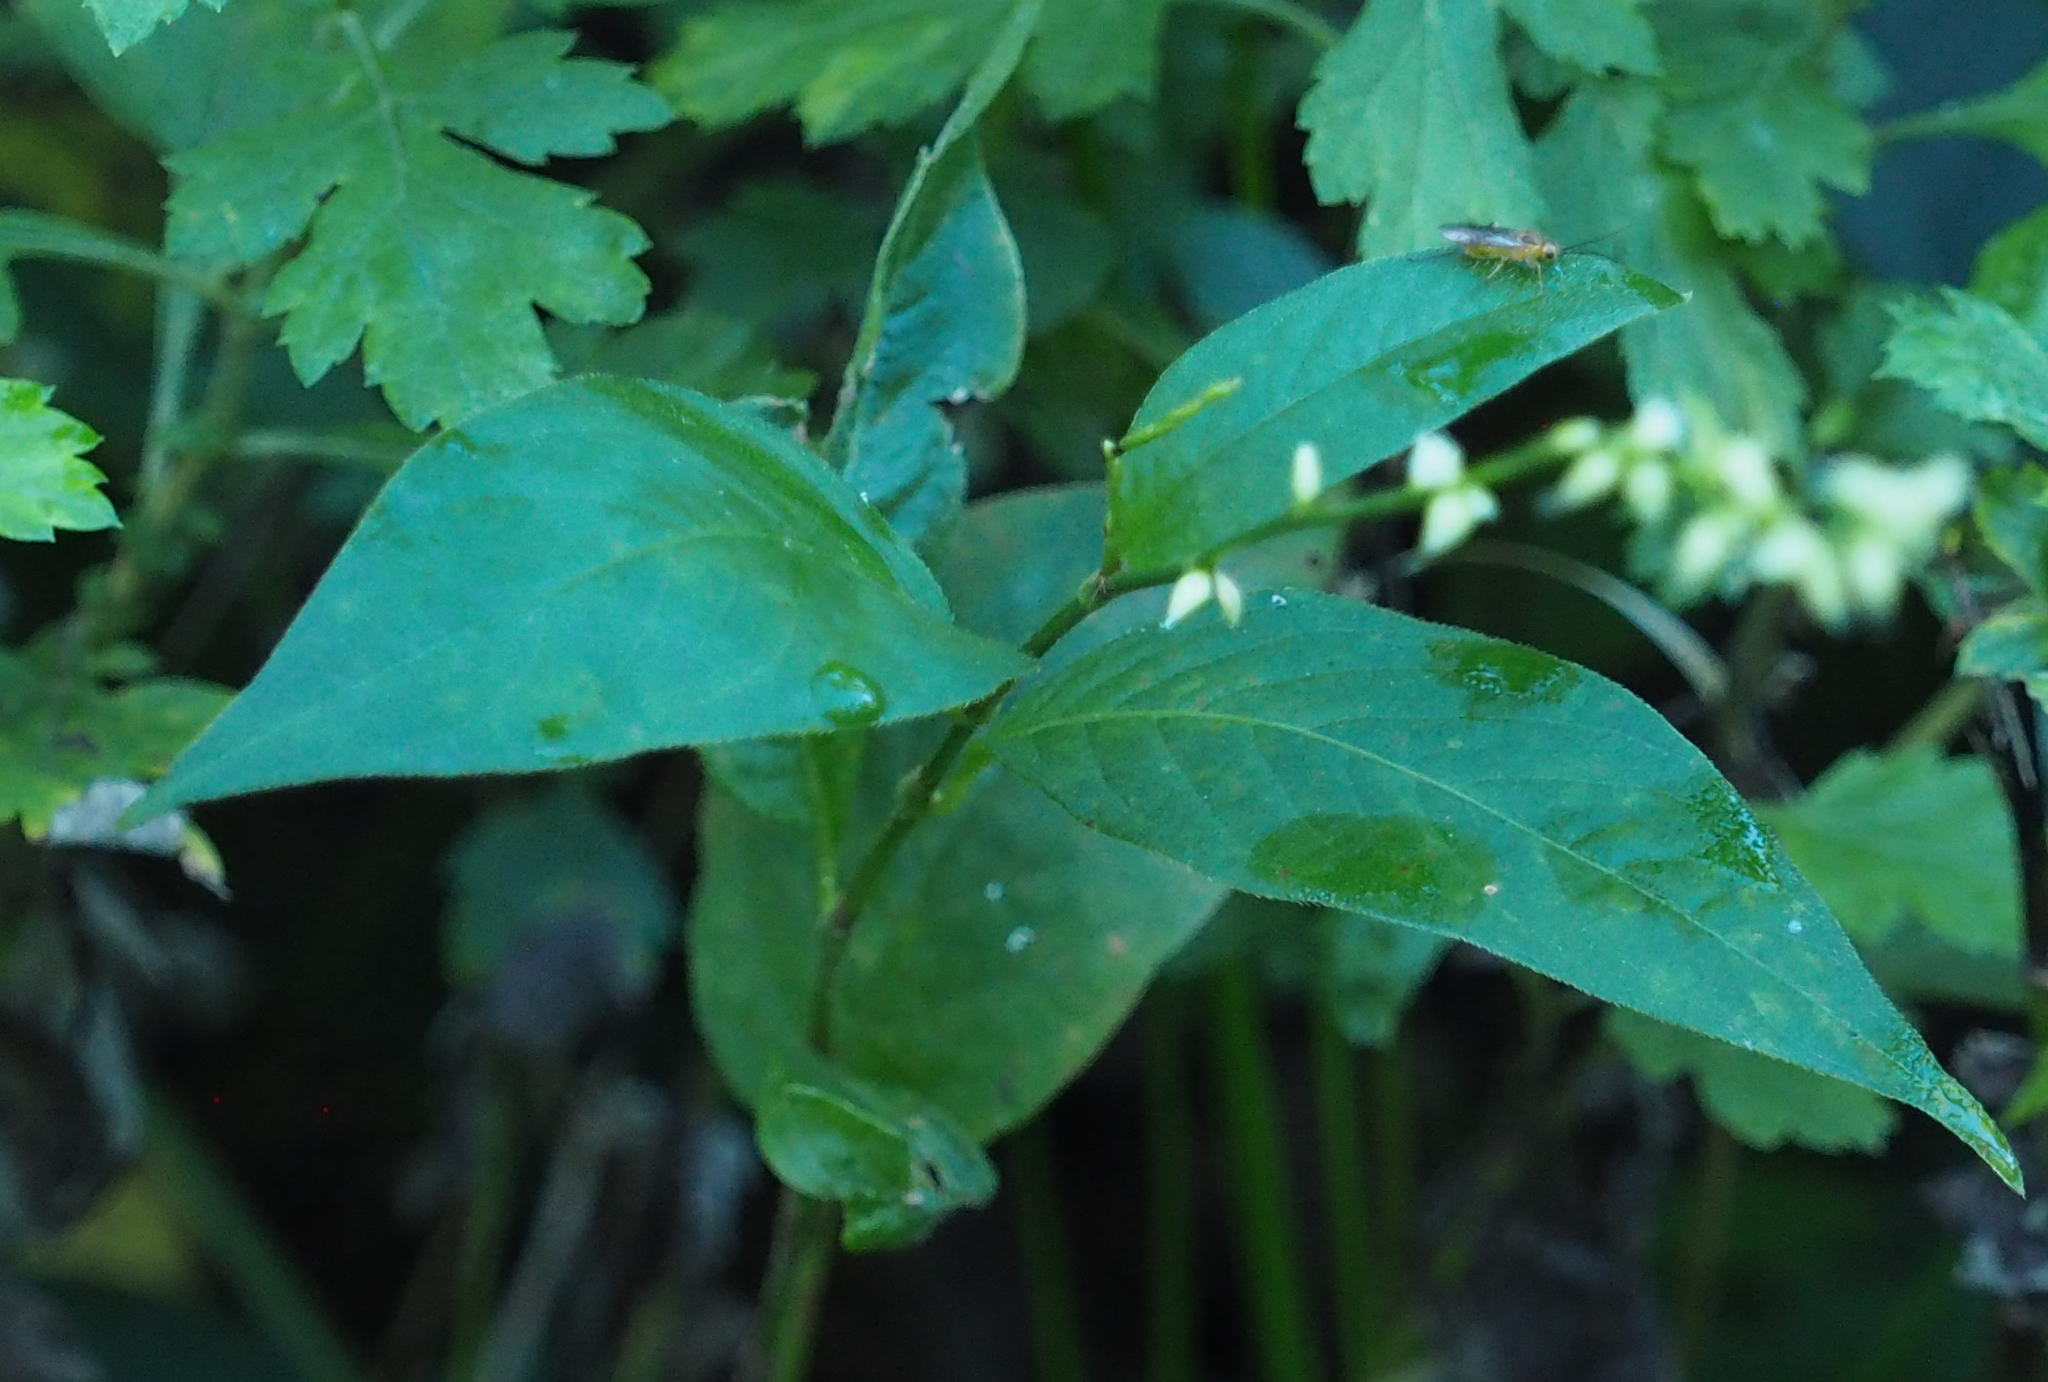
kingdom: Plantae
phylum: Tracheophyta
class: Magnoliopsida
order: Caryophyllales
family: Polygonaceae
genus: Persicaria
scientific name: Persicaria virginiana
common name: Jumpseed
